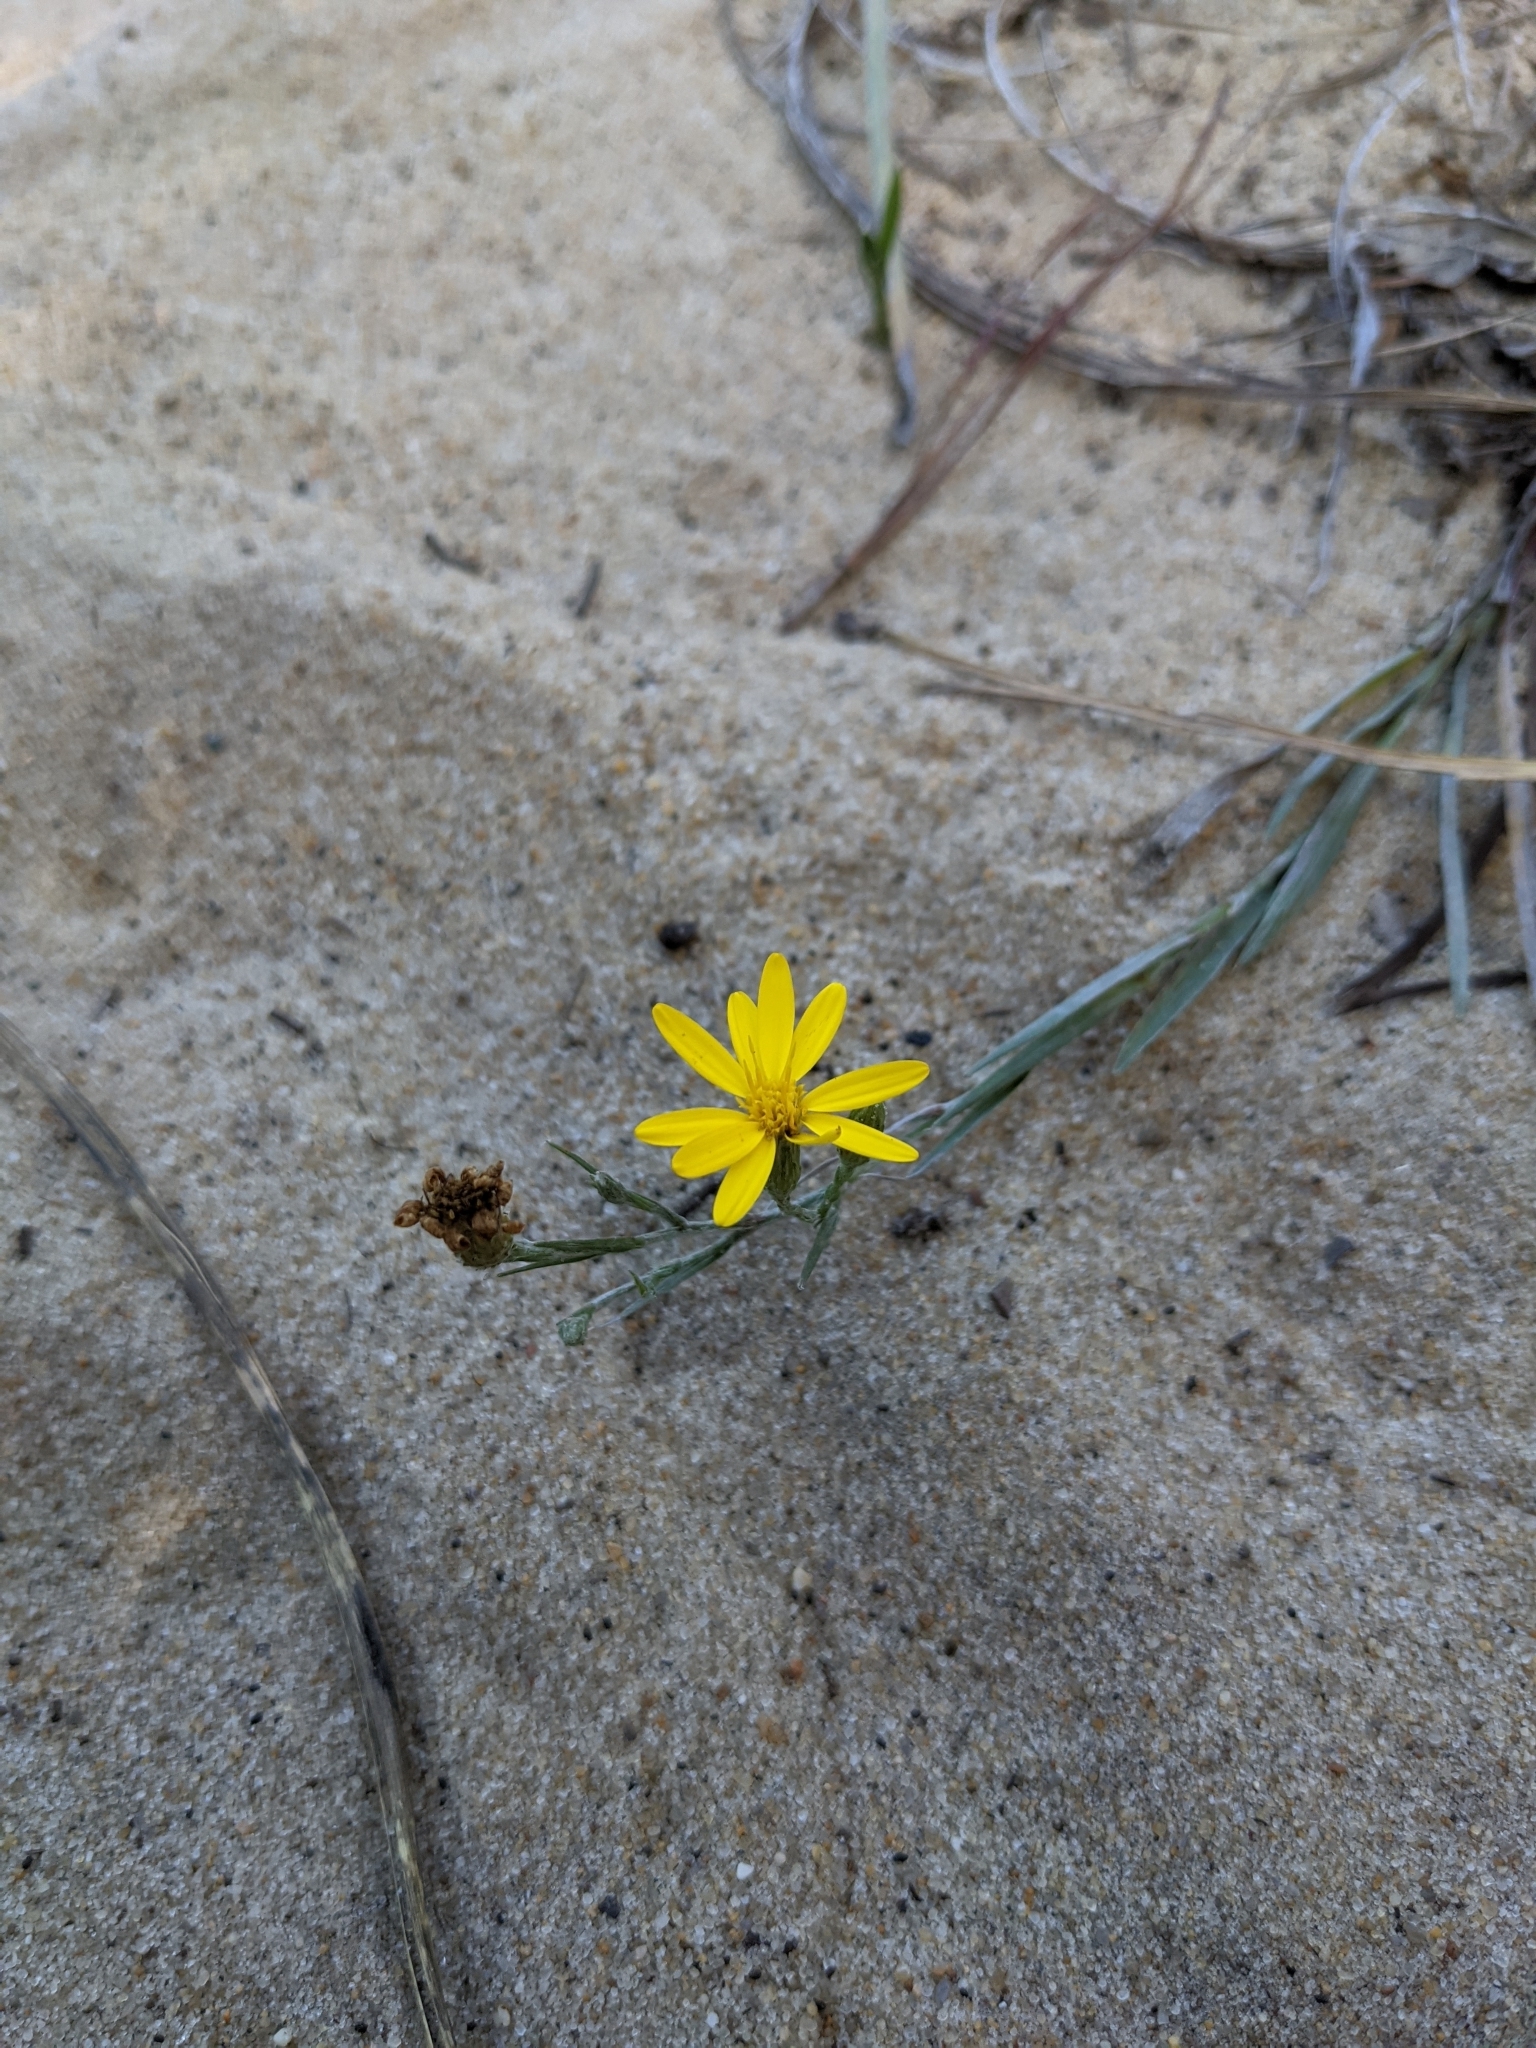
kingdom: Plantae
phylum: Tracheophyta
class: Magnoliopsida
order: Asterales
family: Asteraceae
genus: Pityopsis
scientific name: Pityopsis graminifolia
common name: Grass-leaf golden-aster
